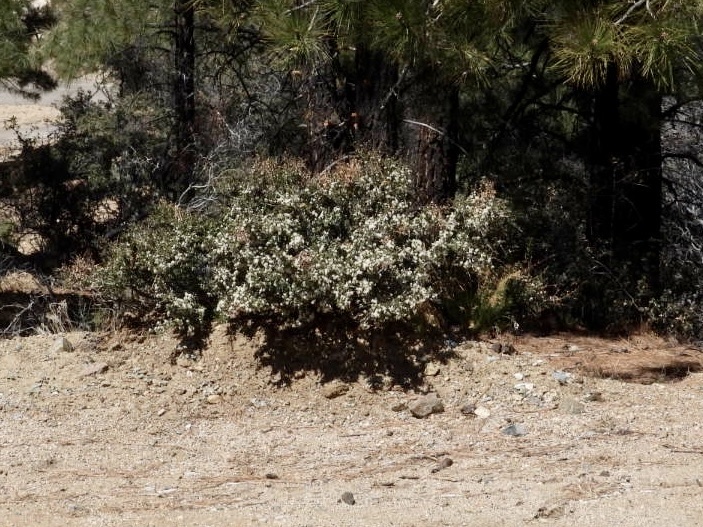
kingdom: Plantae
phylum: Tracheophyta
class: Magnoliopsida
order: Rosales
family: Rhamnaceae
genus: Ceanothus
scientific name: Ceanothus pauciflorus
